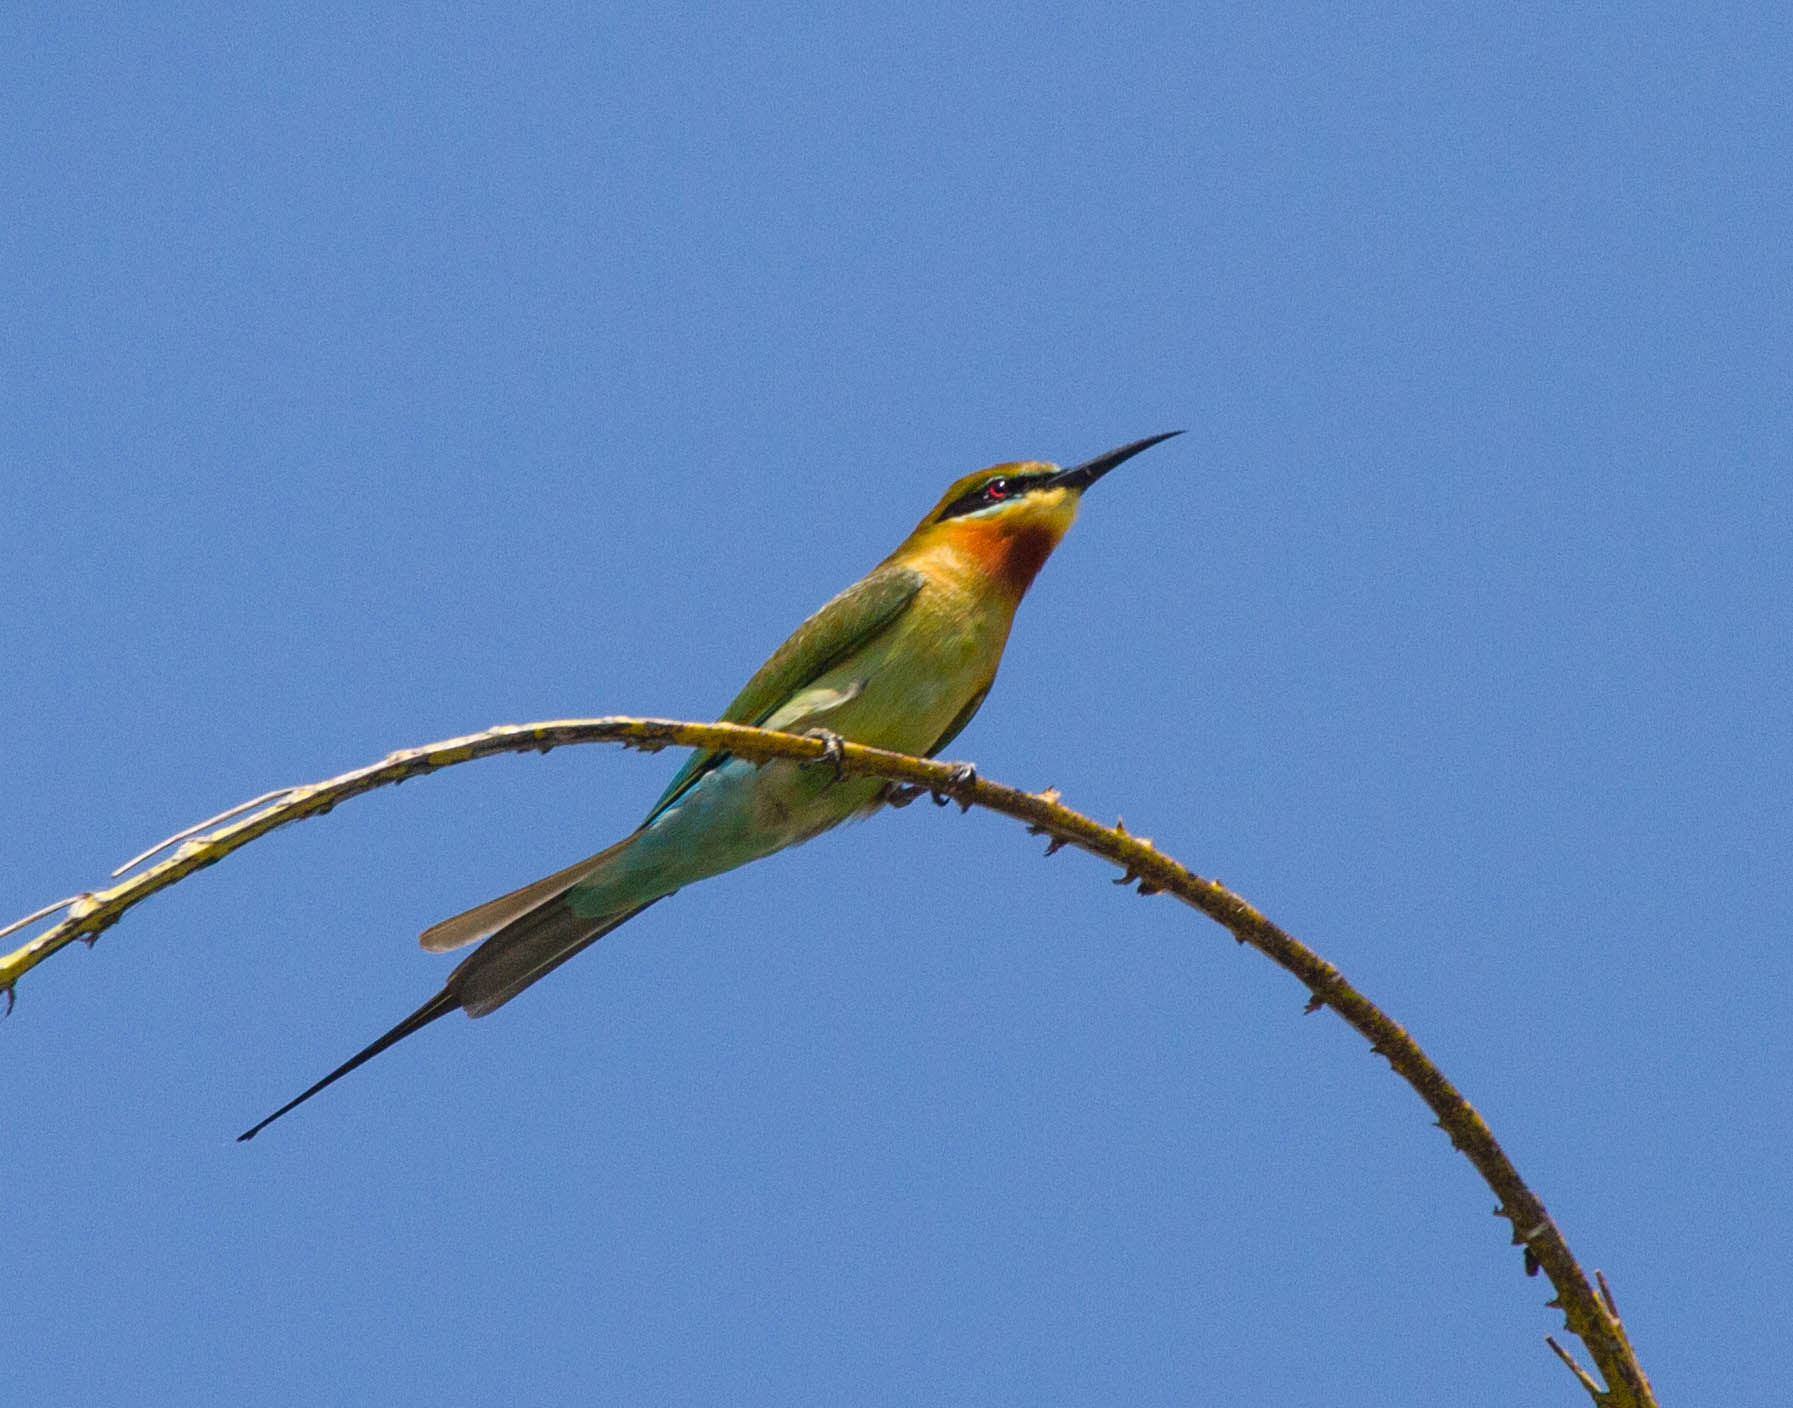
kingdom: Animalia
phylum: Chordata
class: Aves
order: Coraciiformes
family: Meropidae
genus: Merops
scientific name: Merops philippinus
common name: Blue-tailed bee-eater
